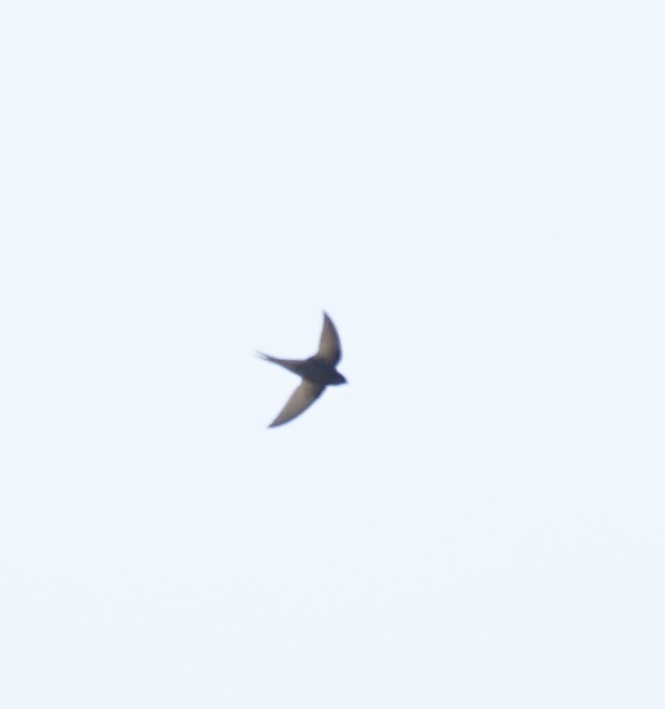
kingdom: Animalia
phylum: Chordata
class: Aves
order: Apodiformes
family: Apodidae
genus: Apus
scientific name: Apus apus
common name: Common swift
